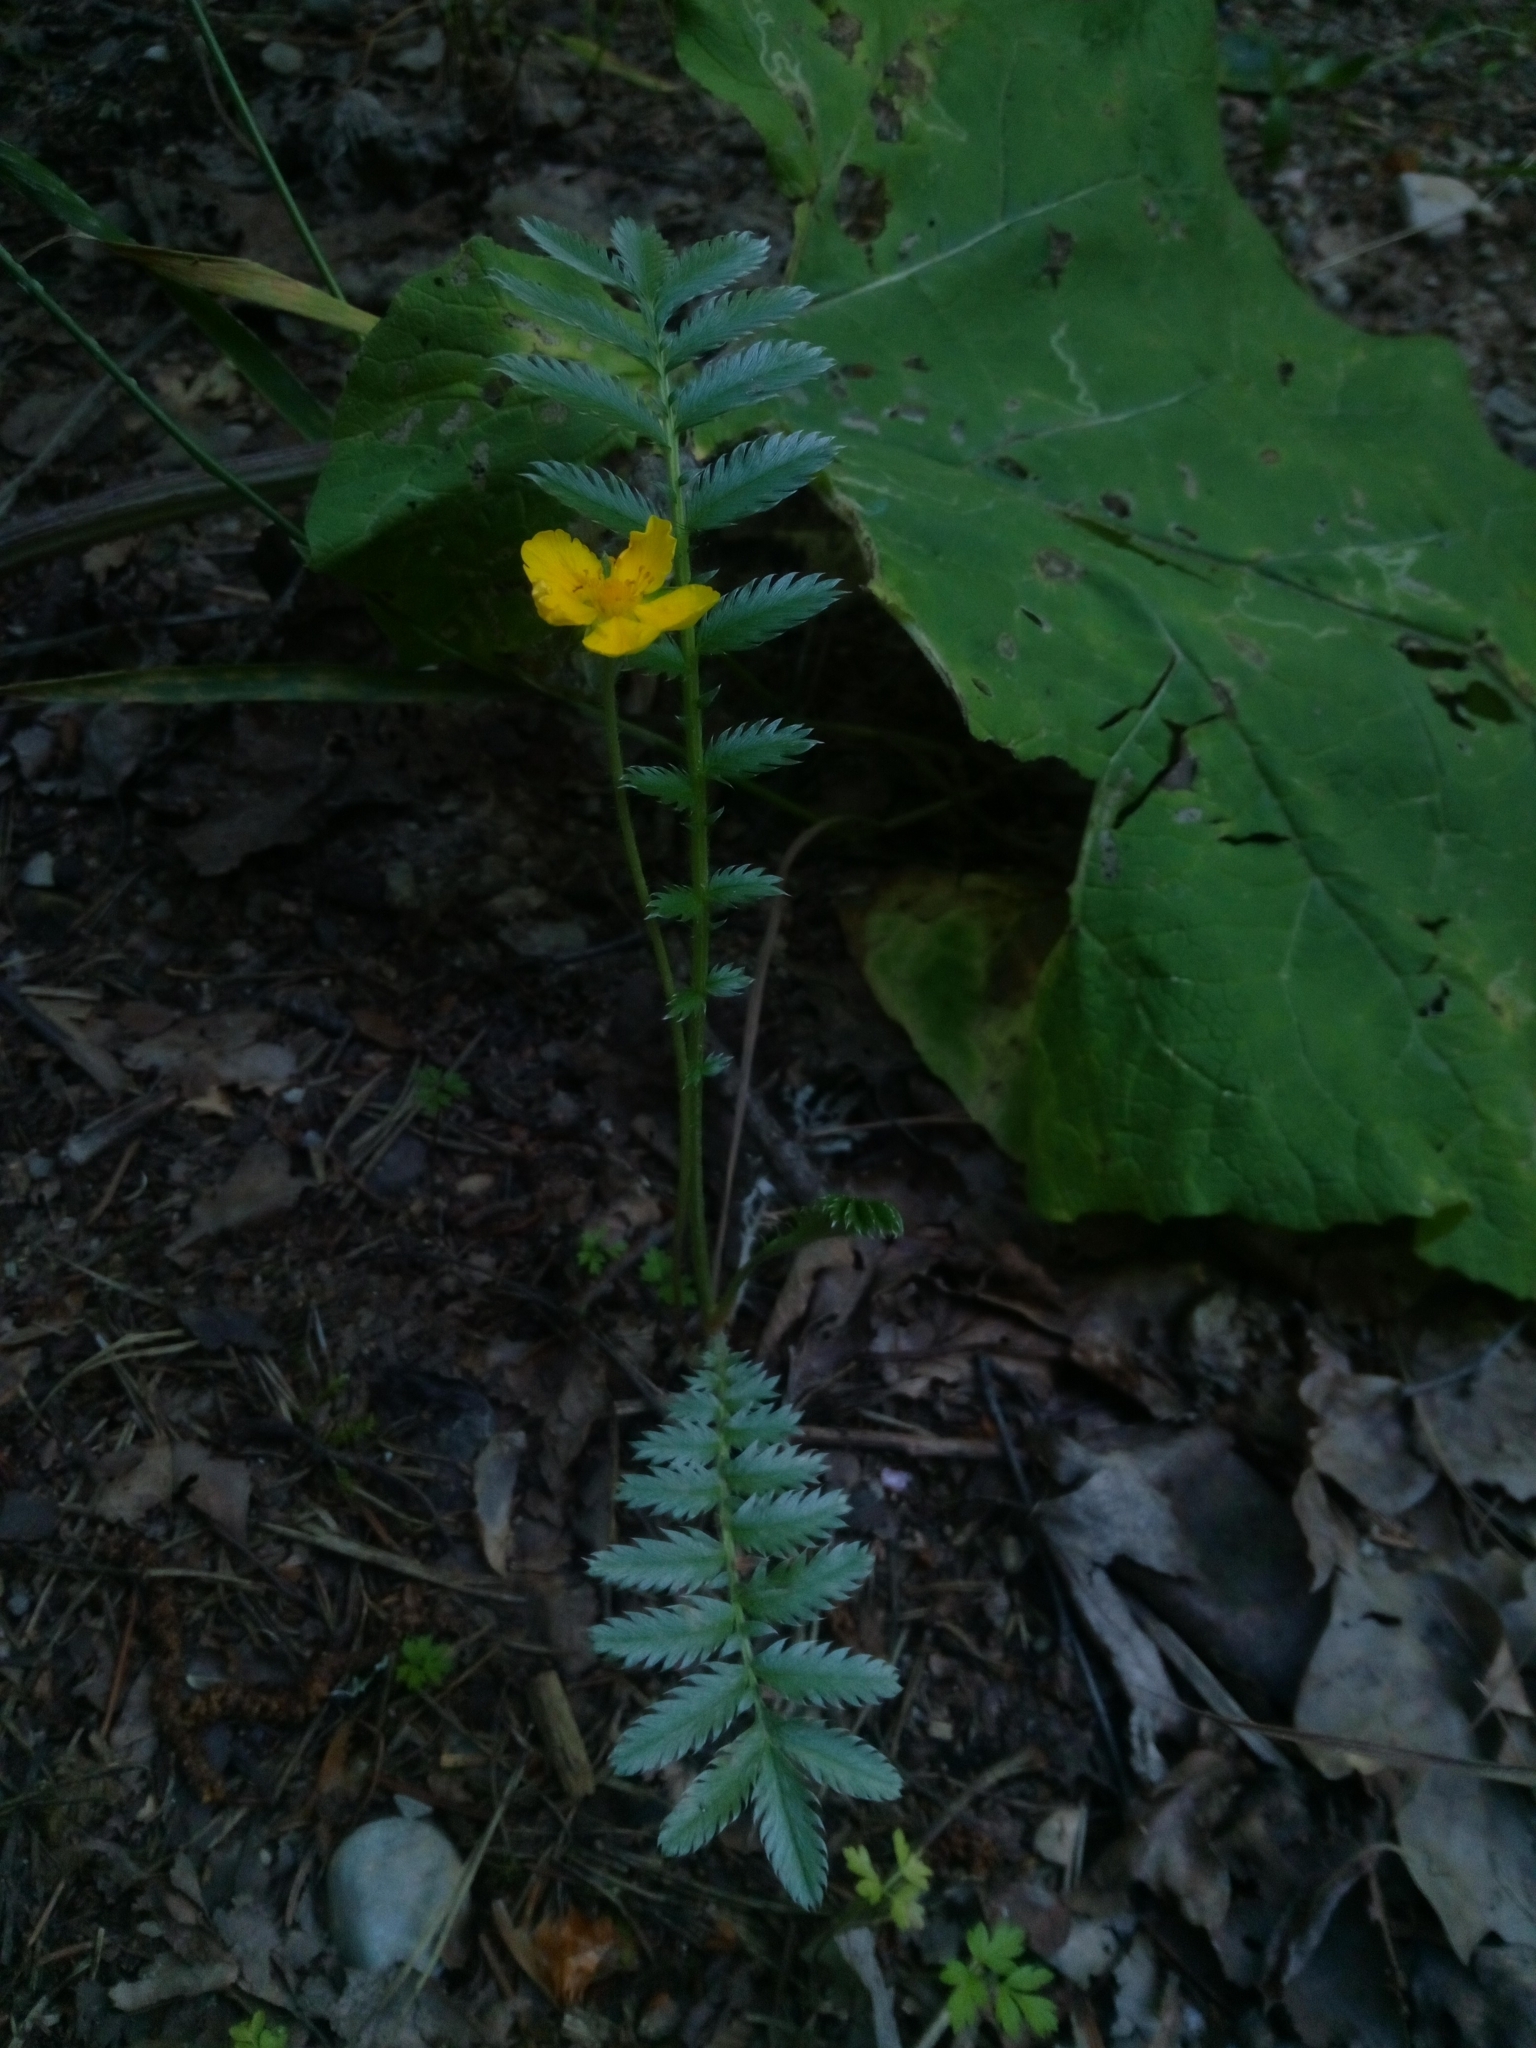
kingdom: Plantae
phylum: Tracheophyta
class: Magnoliopsida
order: Rosales
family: Rosaceae
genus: Argentina
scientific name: Argentina anserina
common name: Common silverweed
